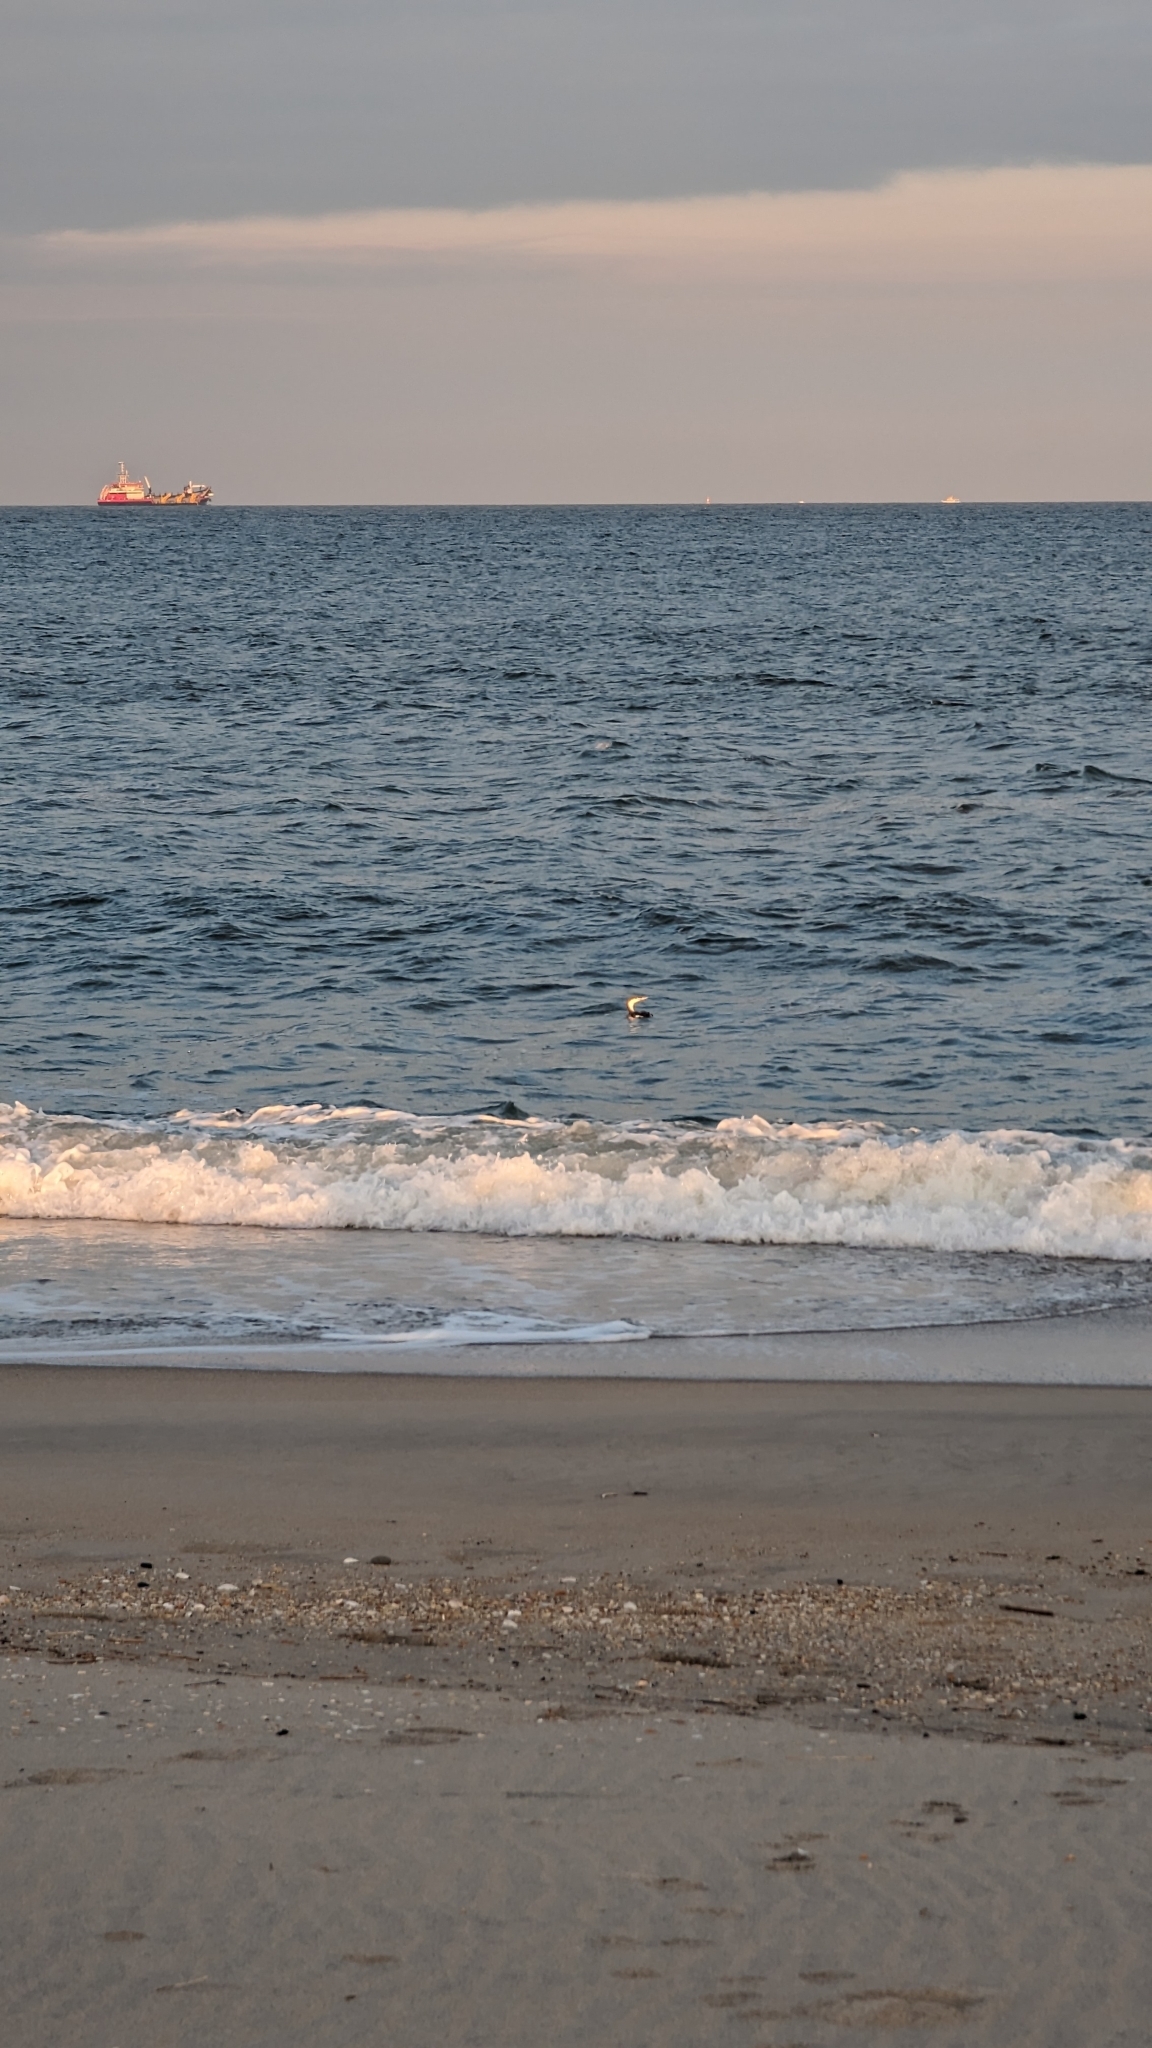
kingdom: Animalia
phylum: Chordata
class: Aves
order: Gaviiformes
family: Gaviidae
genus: Gavia
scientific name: Gavia stellata
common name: Red-throated loon
